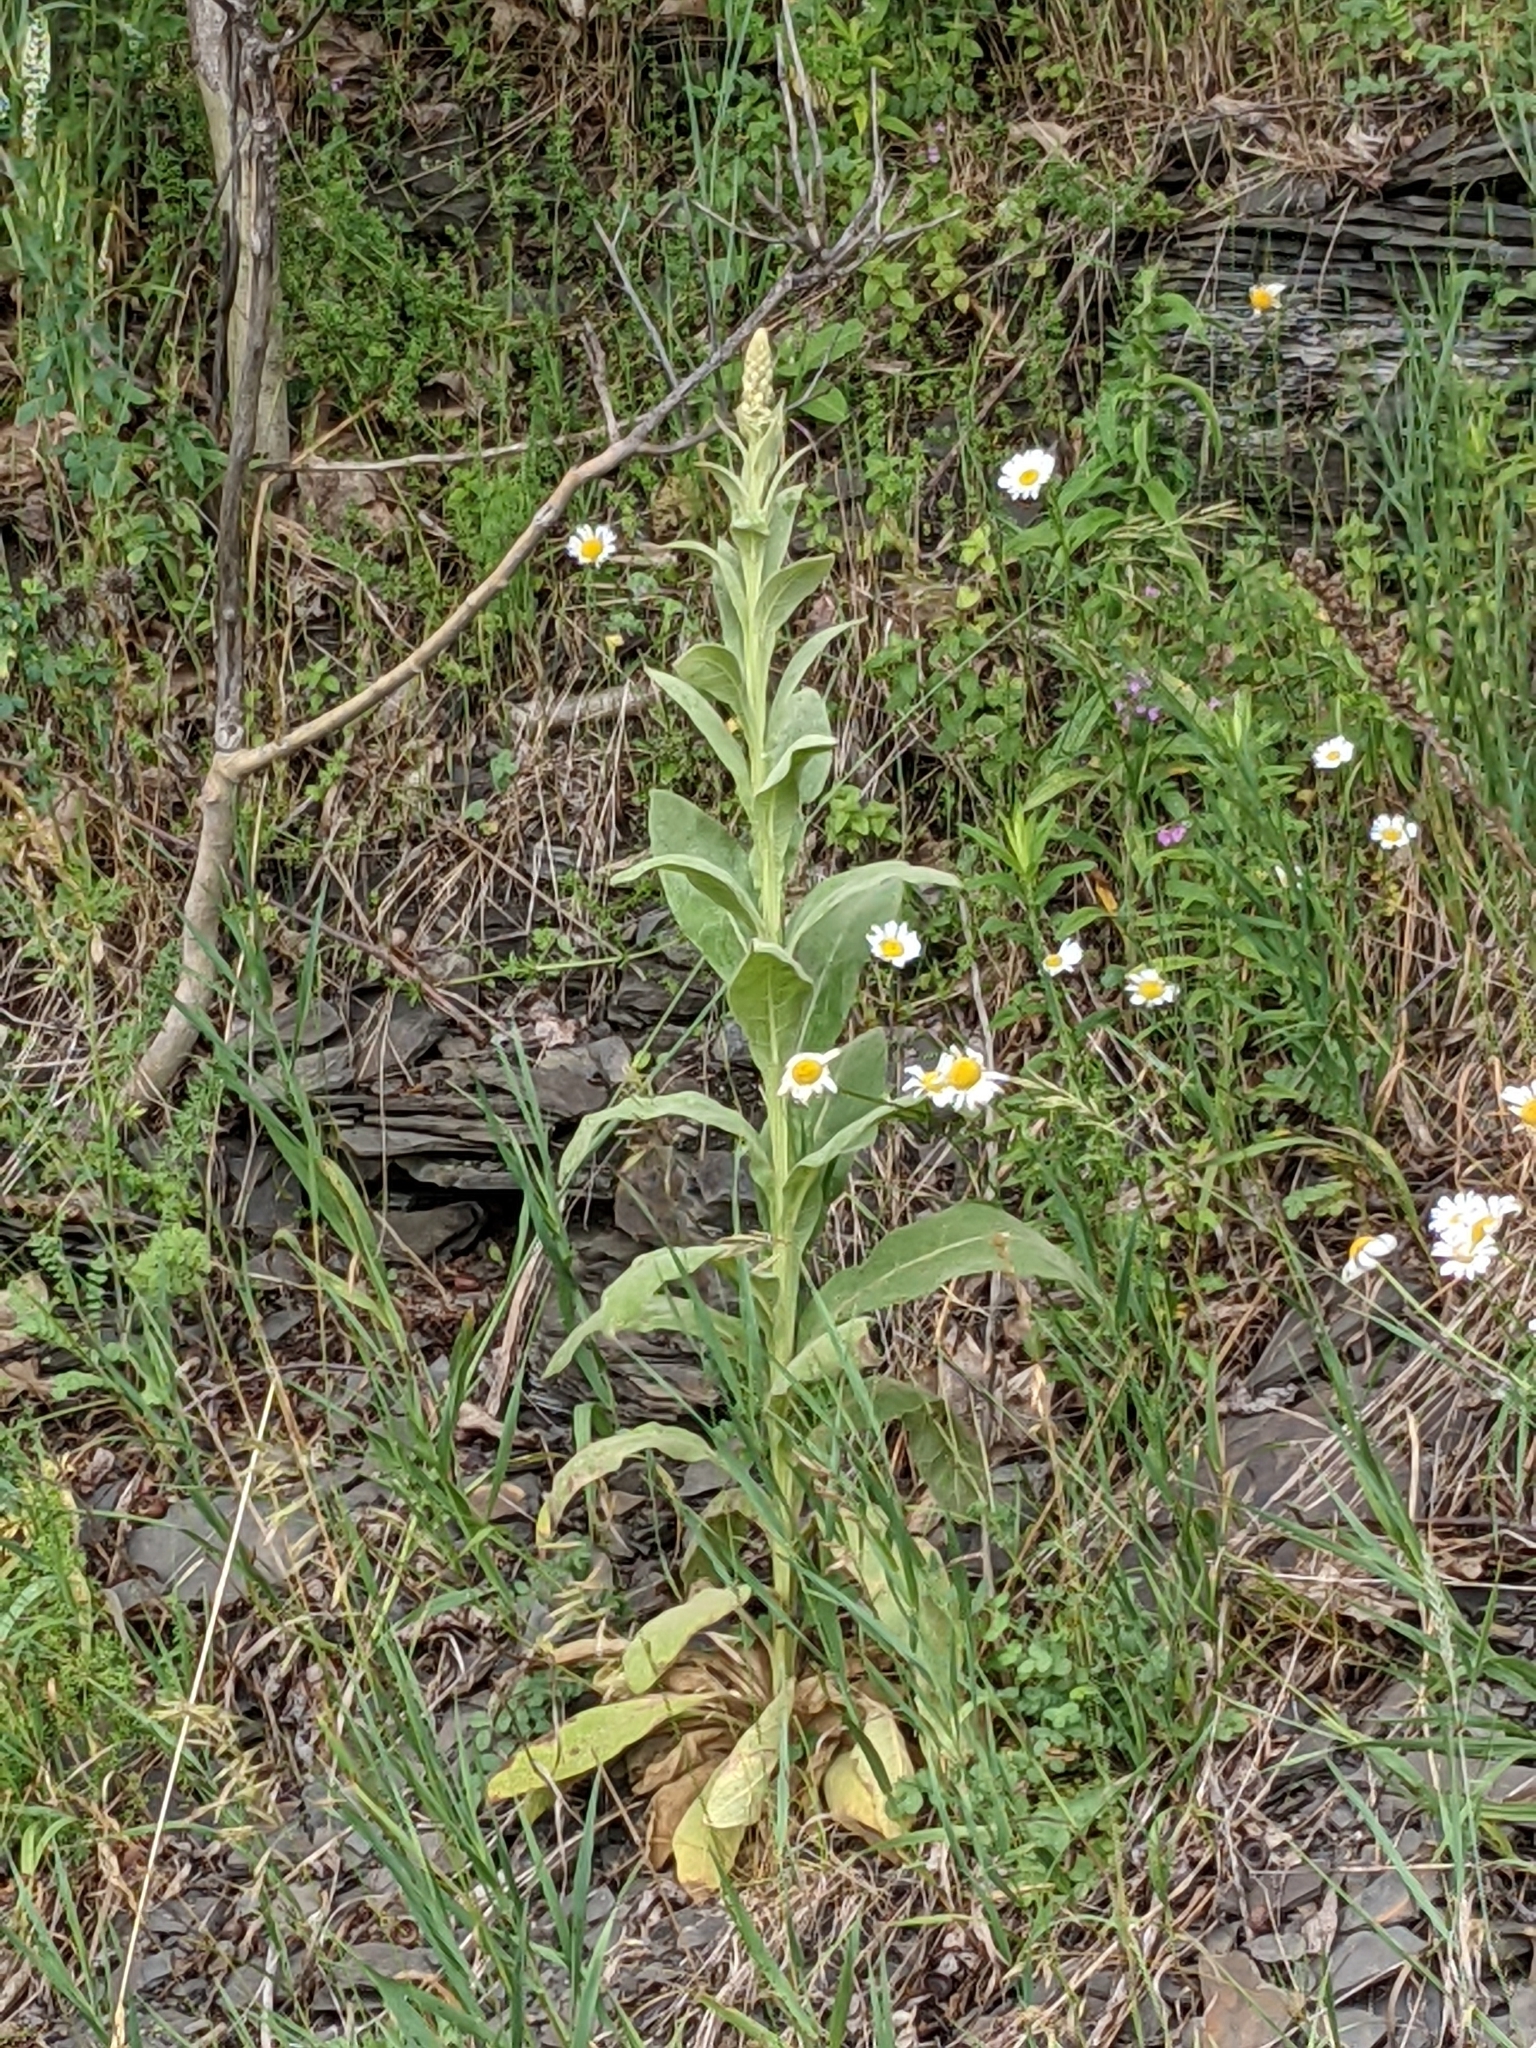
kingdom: Plantae
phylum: Tracheophyta
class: Magnoliopsida
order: Lamiales
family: Scrophulariaceae
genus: Verbascum
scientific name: Verbascum thapsus
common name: Common mullein
